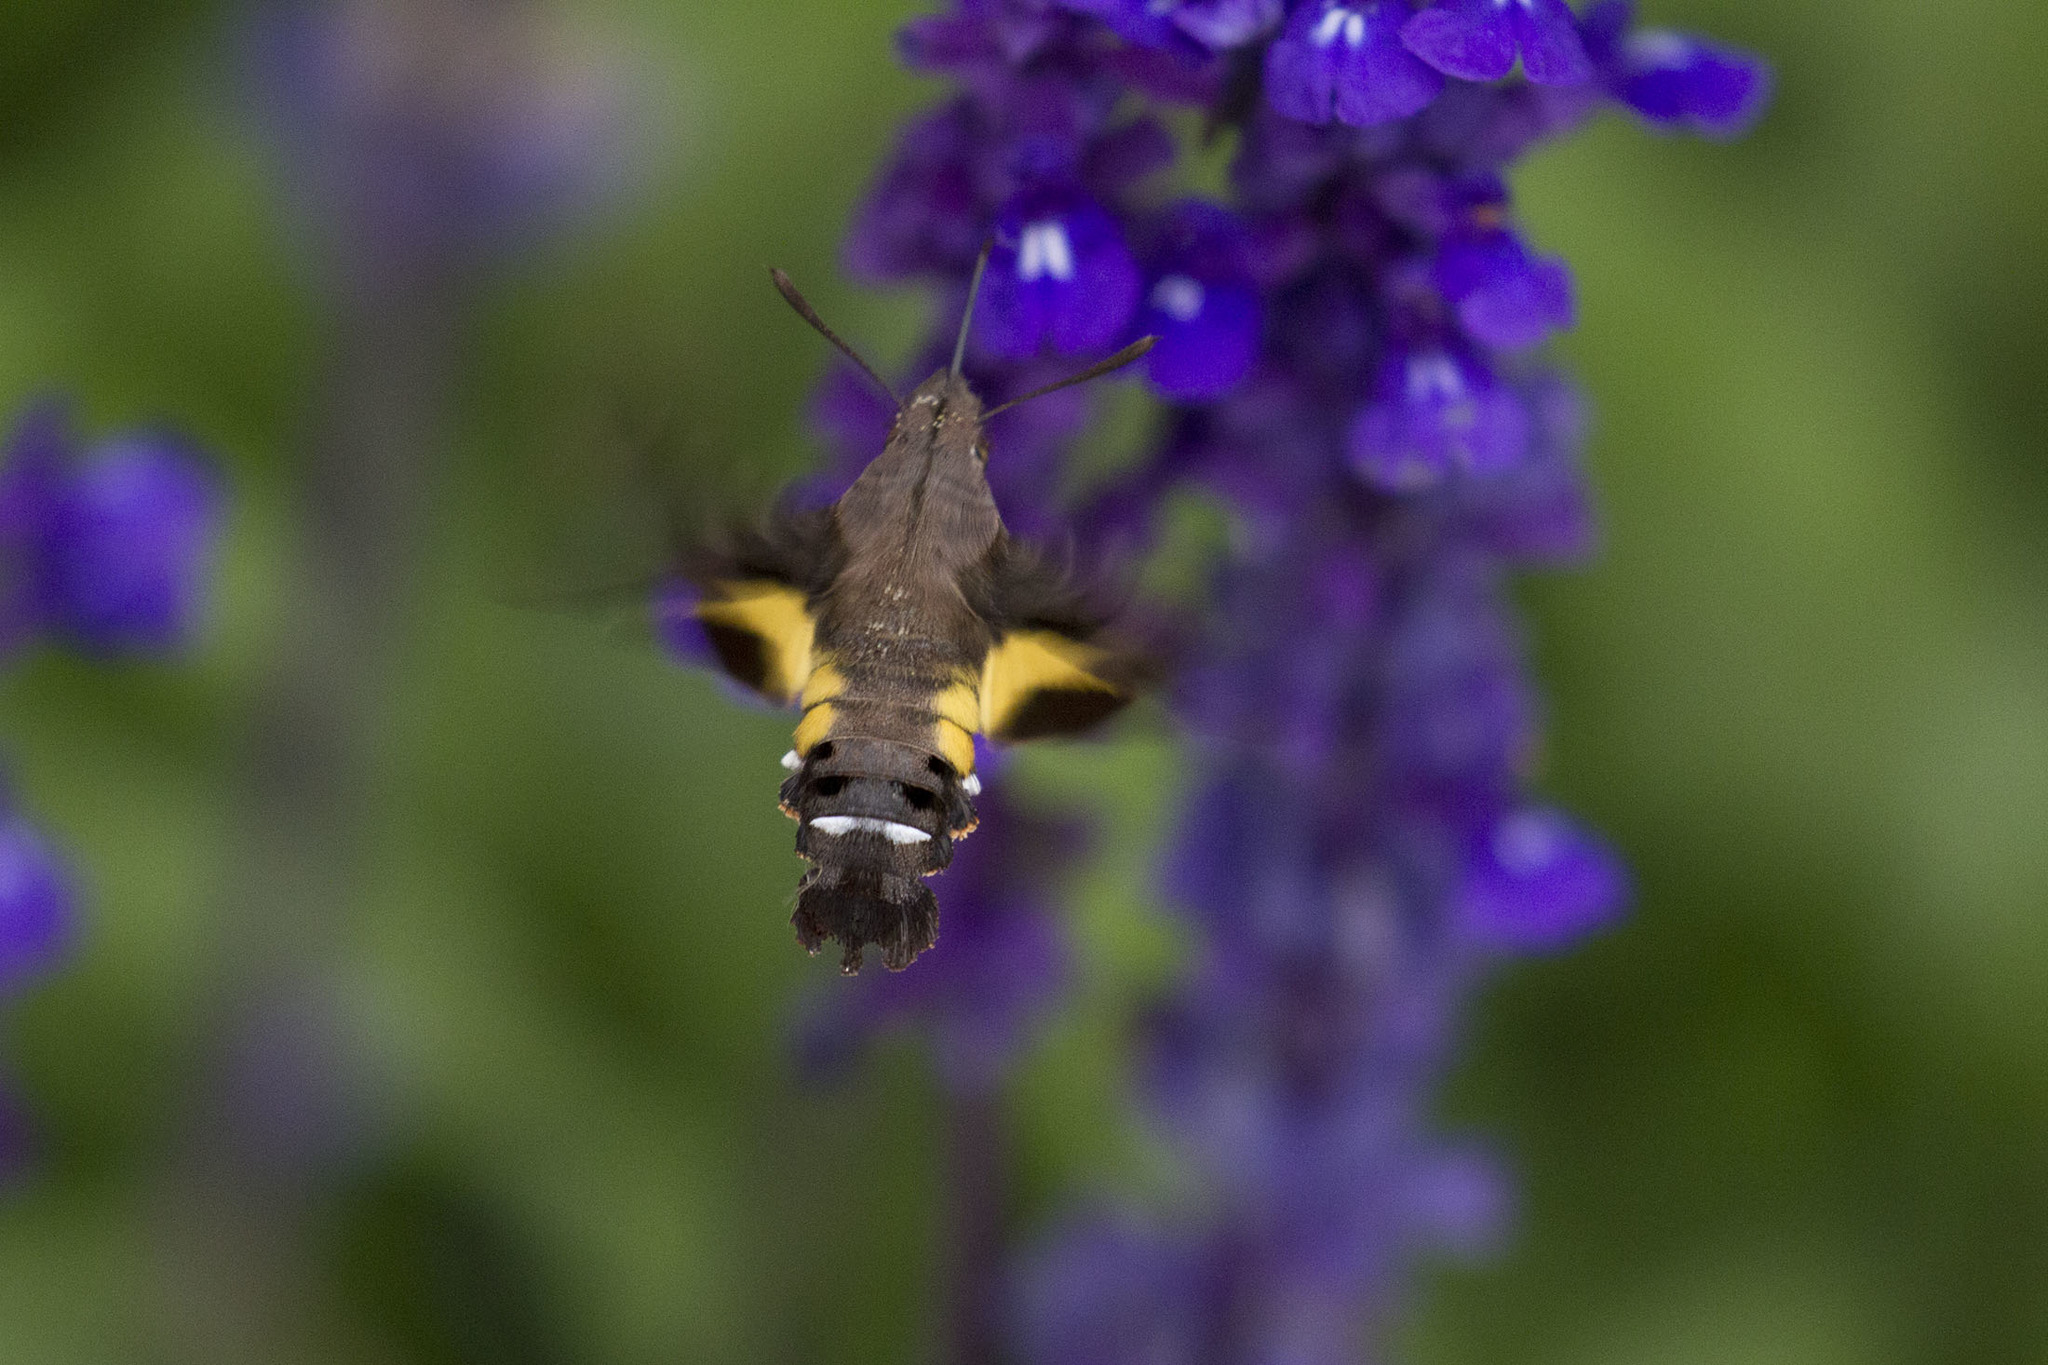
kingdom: Animalia
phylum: Arthropoda
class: Insecta
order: Lepidoptera
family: Sphingidae
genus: Macroglossum
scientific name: Macroglossum nycteris
